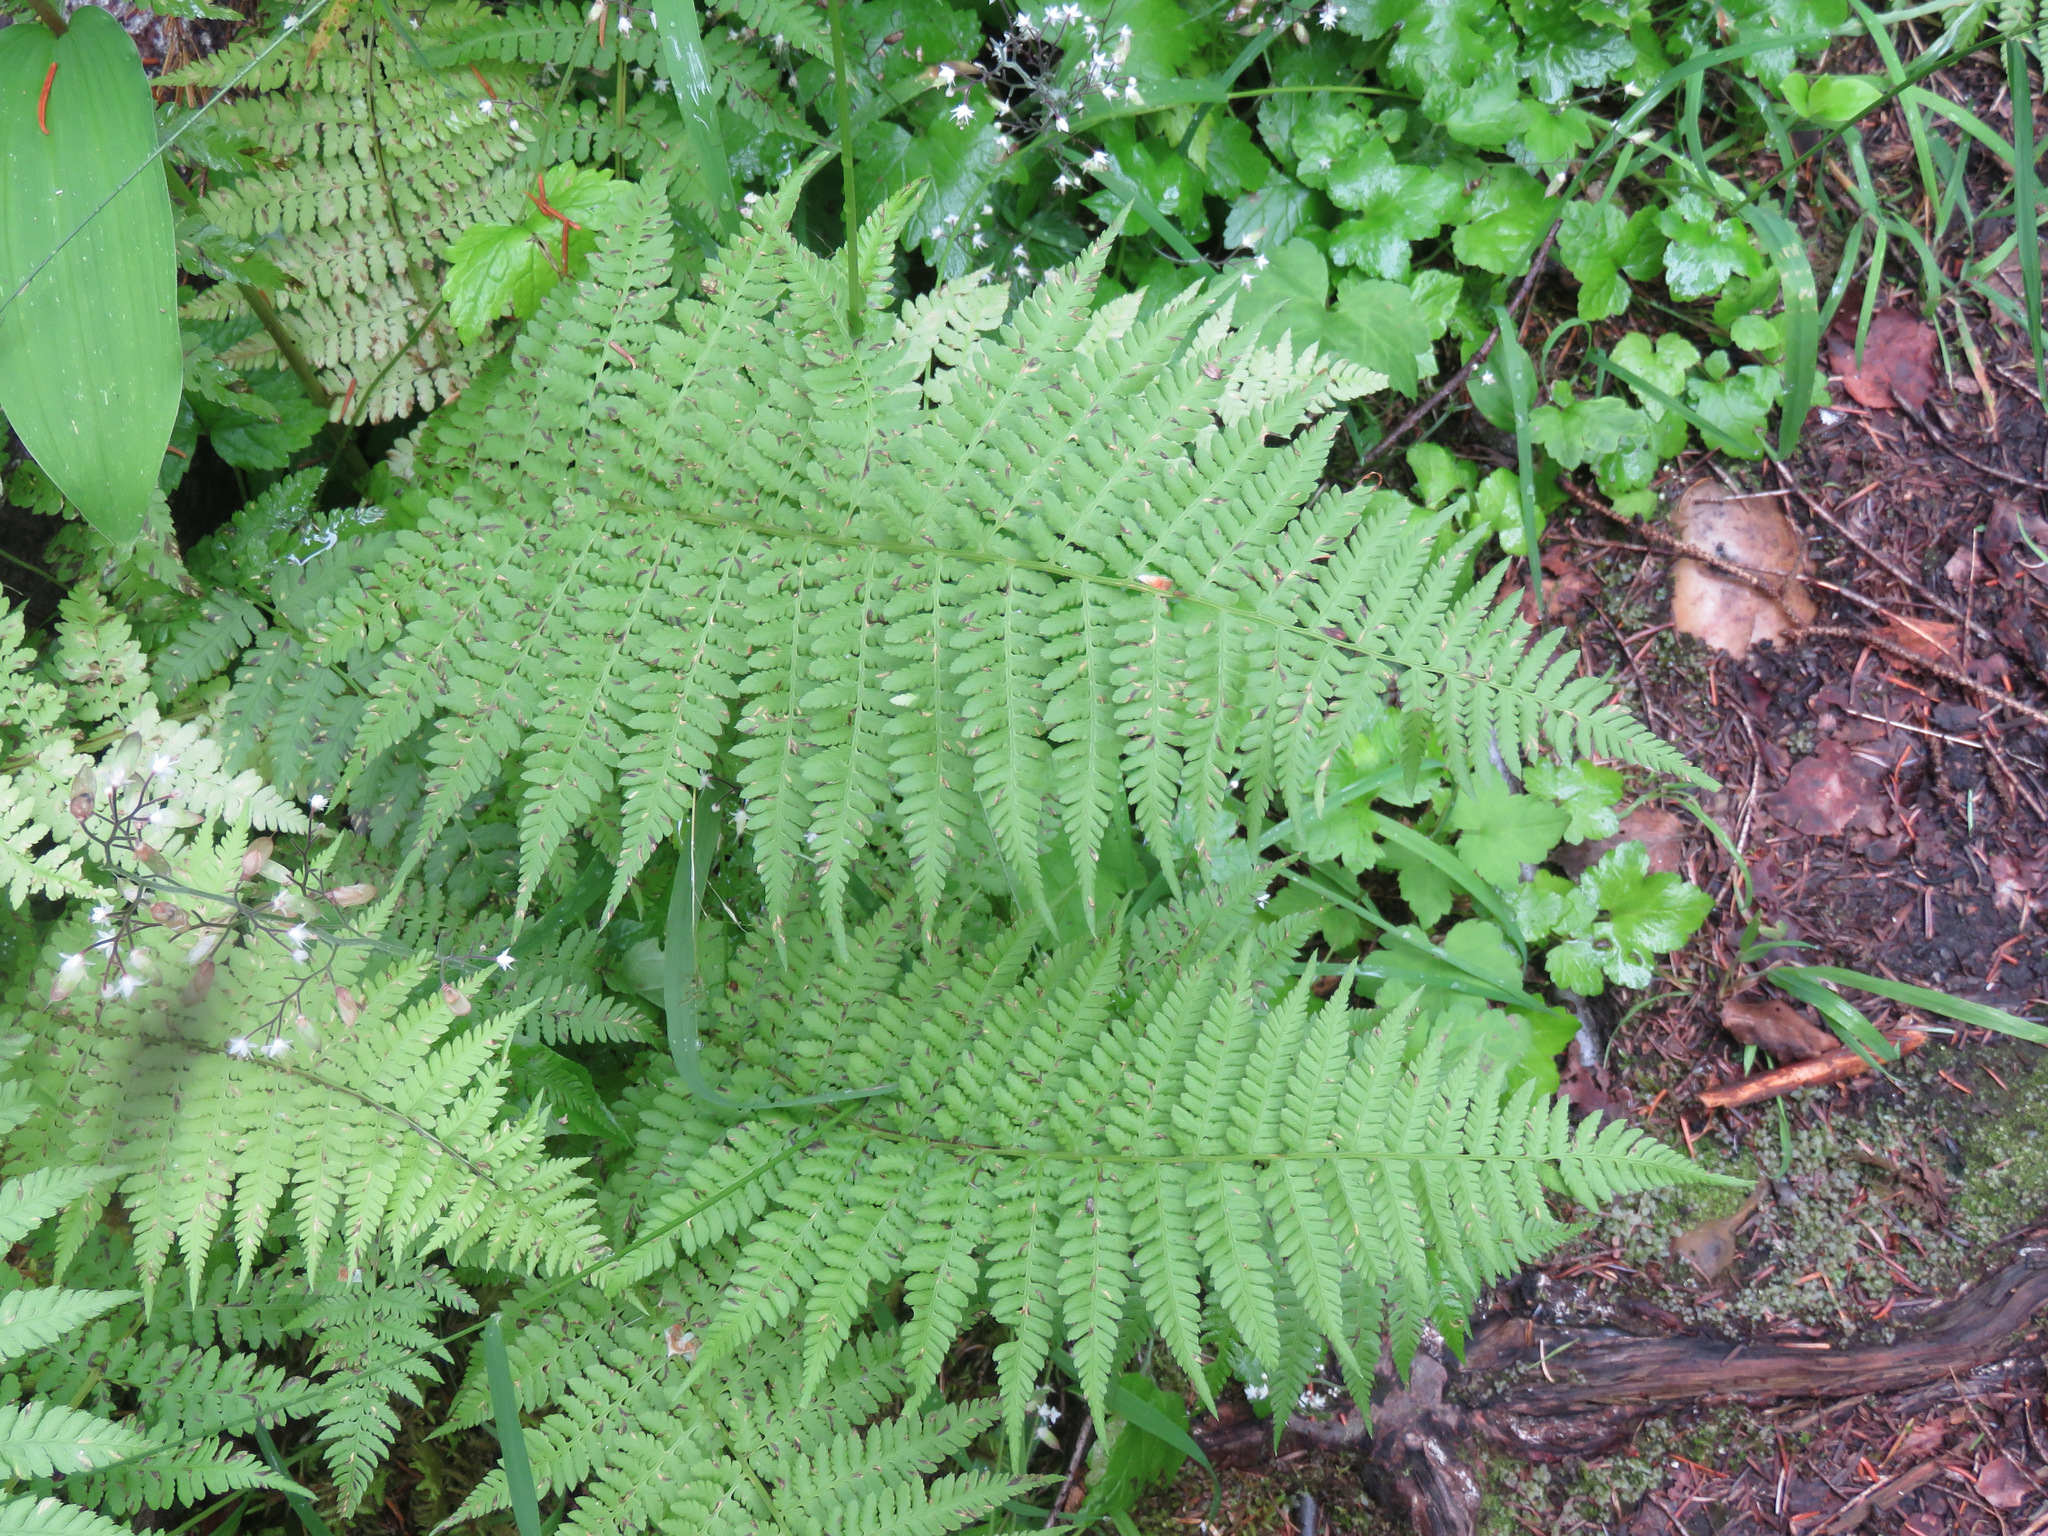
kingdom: Plantae
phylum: Tracheophyta
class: Polypodiopsida
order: Polypodiales
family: Athyriaceae
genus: Athyrium
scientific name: Athyrium filix-femina
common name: Lady fern
